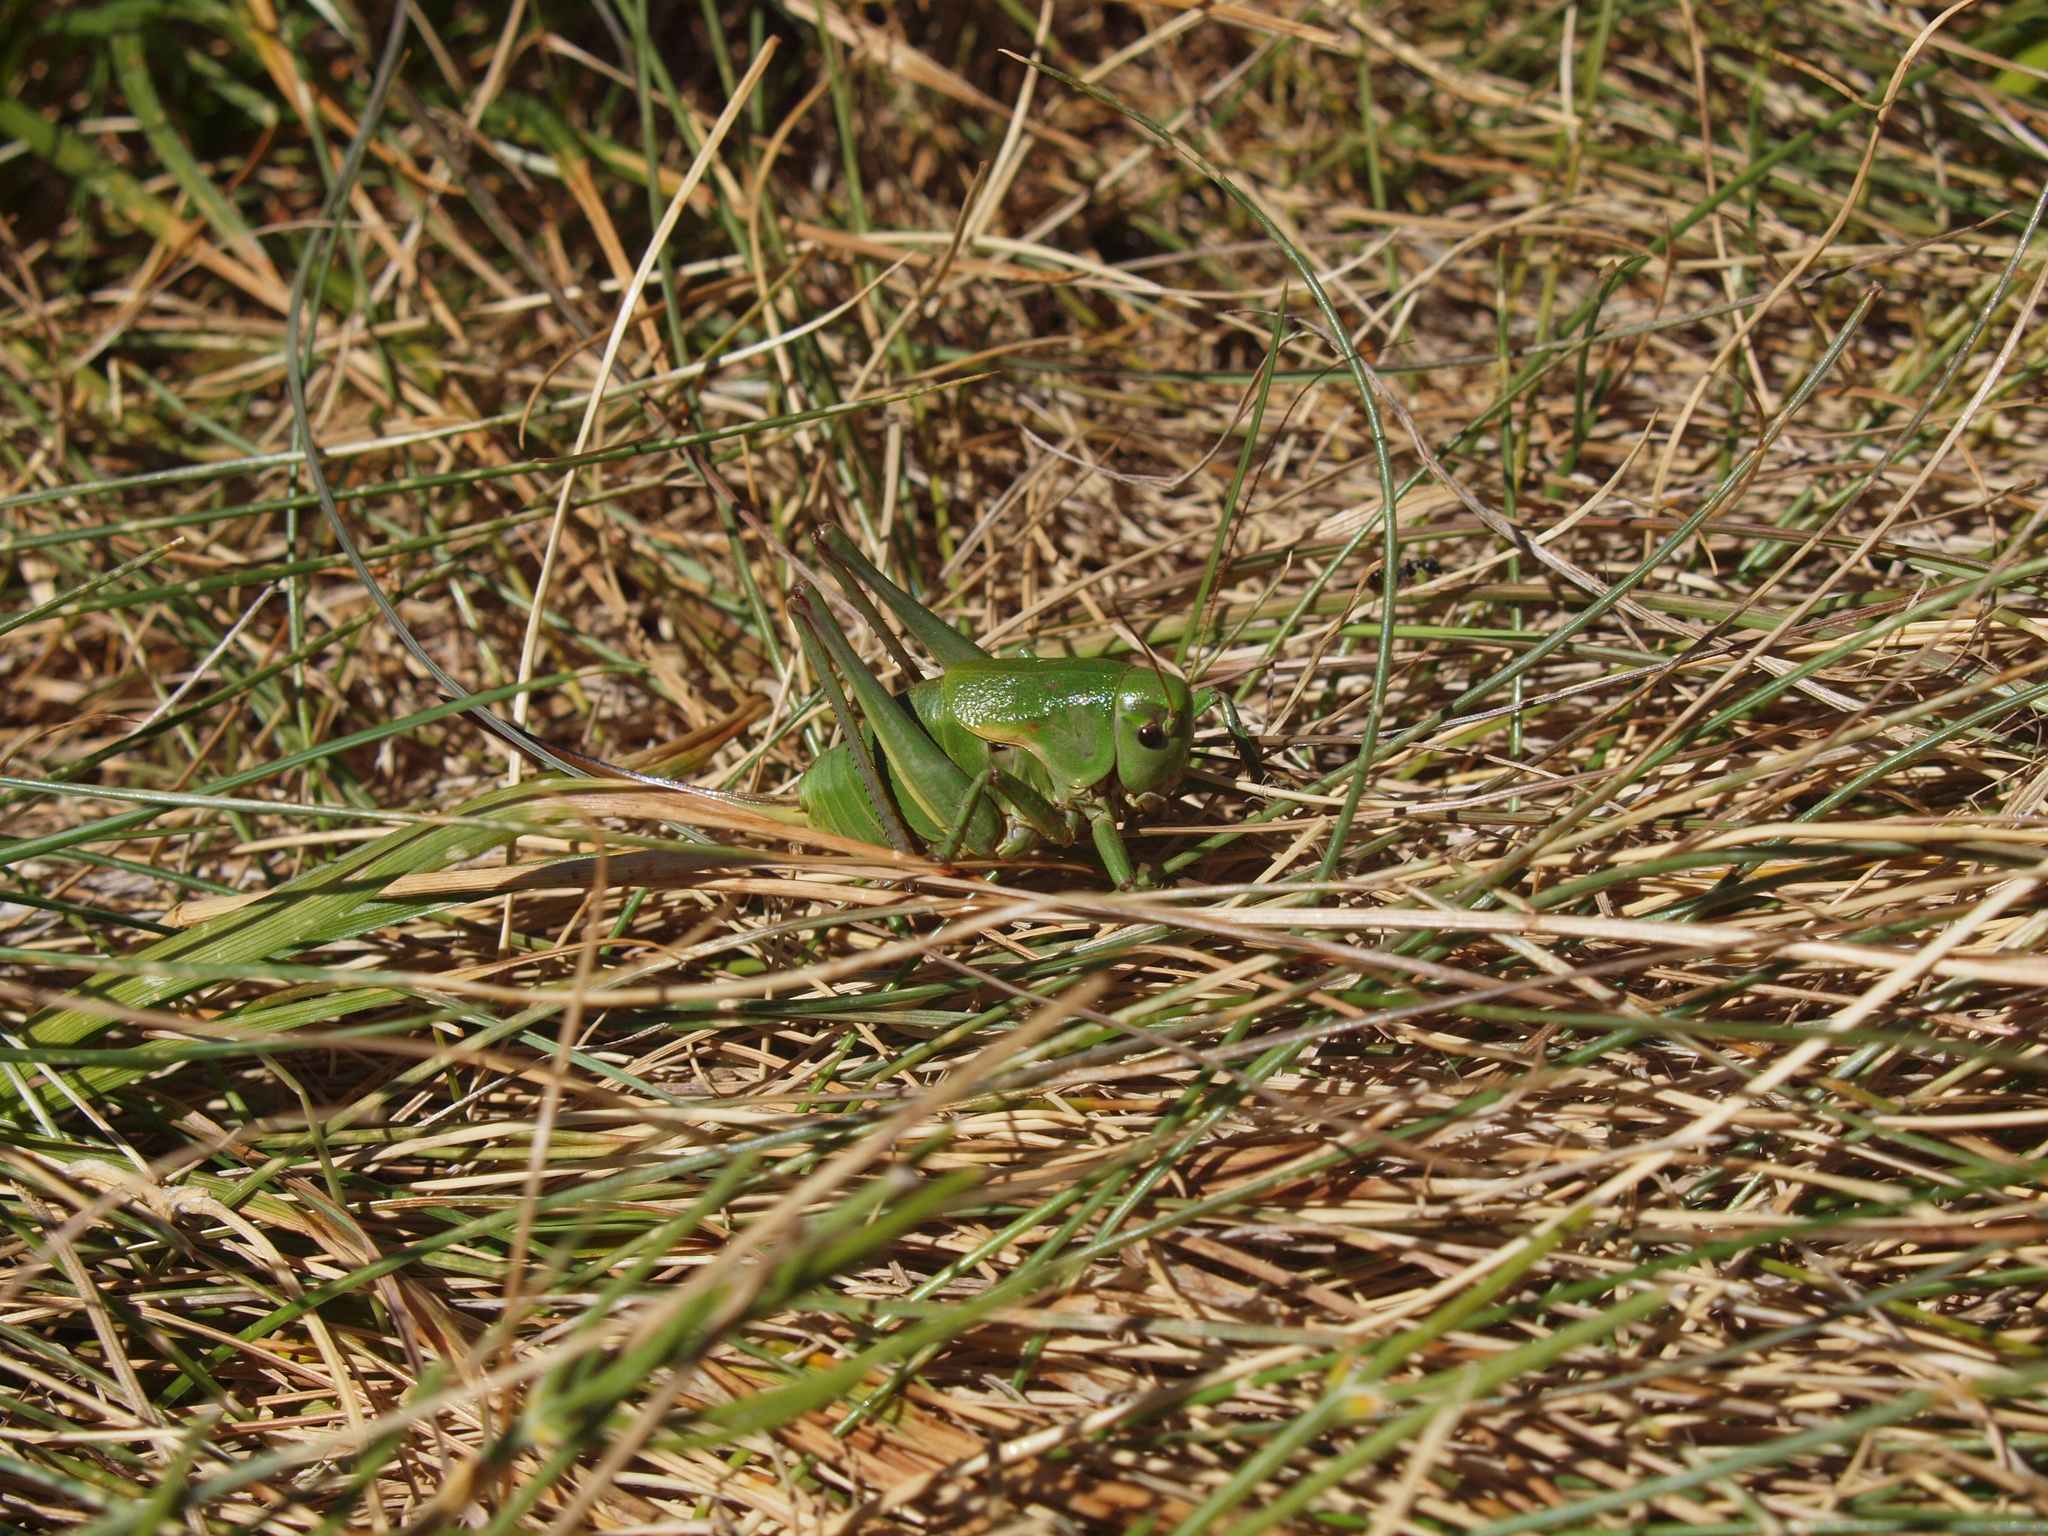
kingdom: Animalia
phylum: Arthropoda
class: Insecta
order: Orthoptera
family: Tettigoniidae
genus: Psorodonotus
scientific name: Psorodonotus illyricus
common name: Illyrican walking bush-cricket
